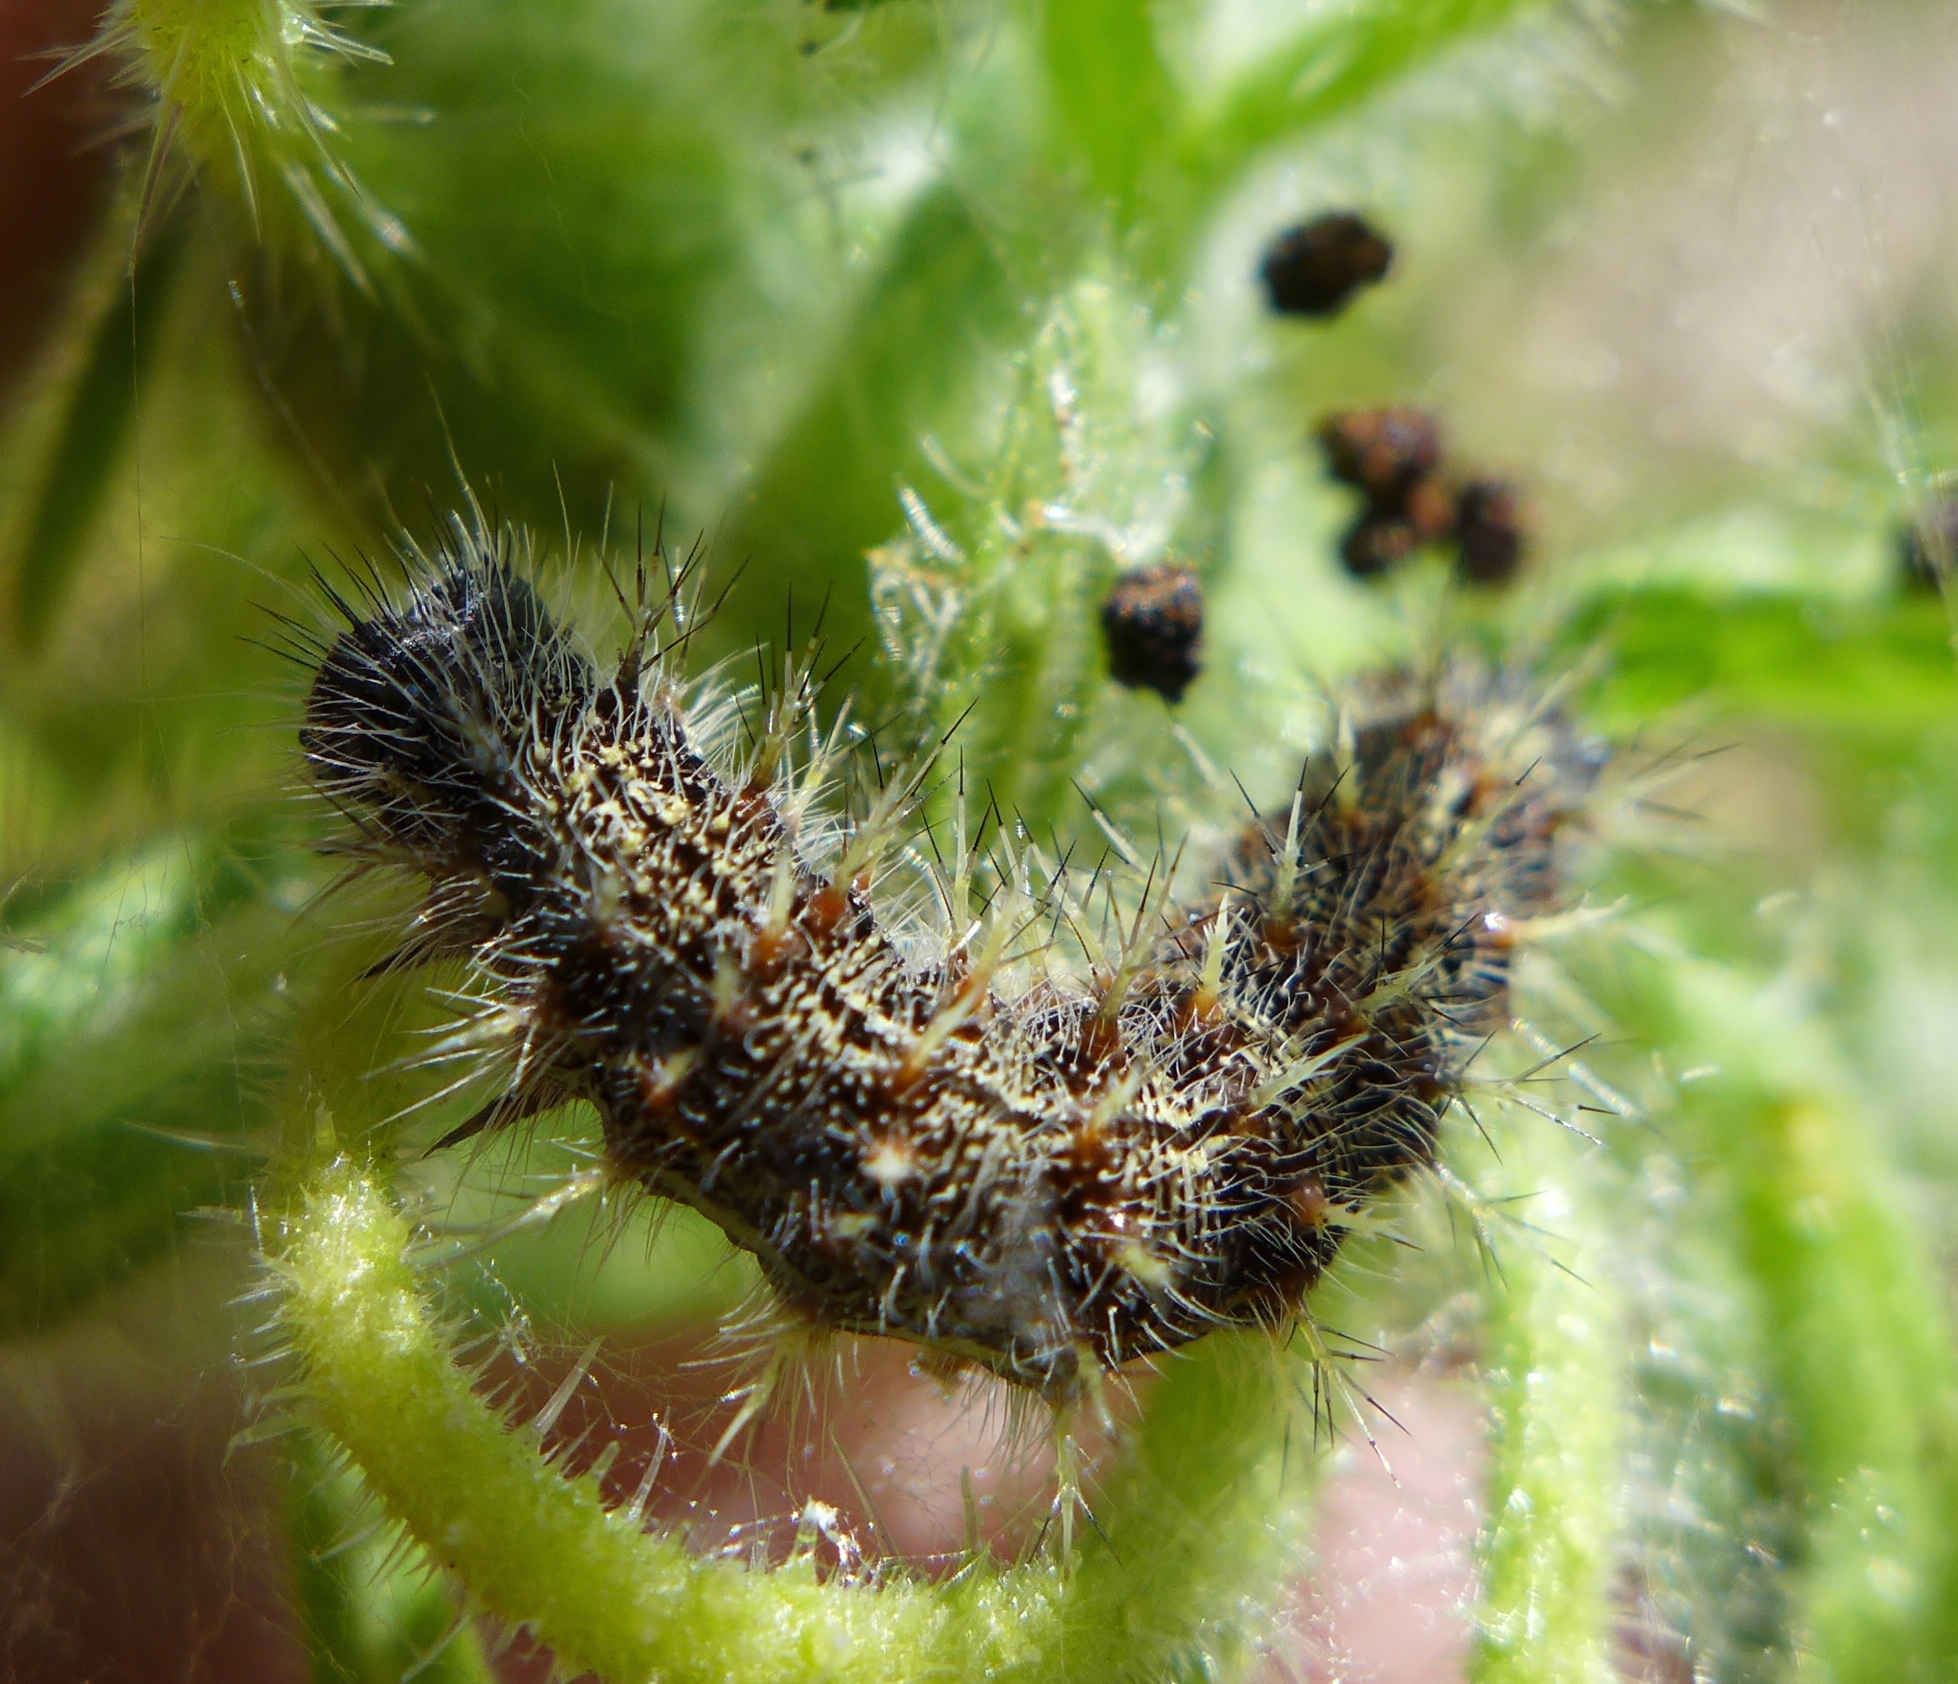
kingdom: Animalia
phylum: Arthropoda
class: Insecta
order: Lepidoptera
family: Nymphalidae
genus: Vanessa
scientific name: Vanessa cardui
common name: Painted lady
